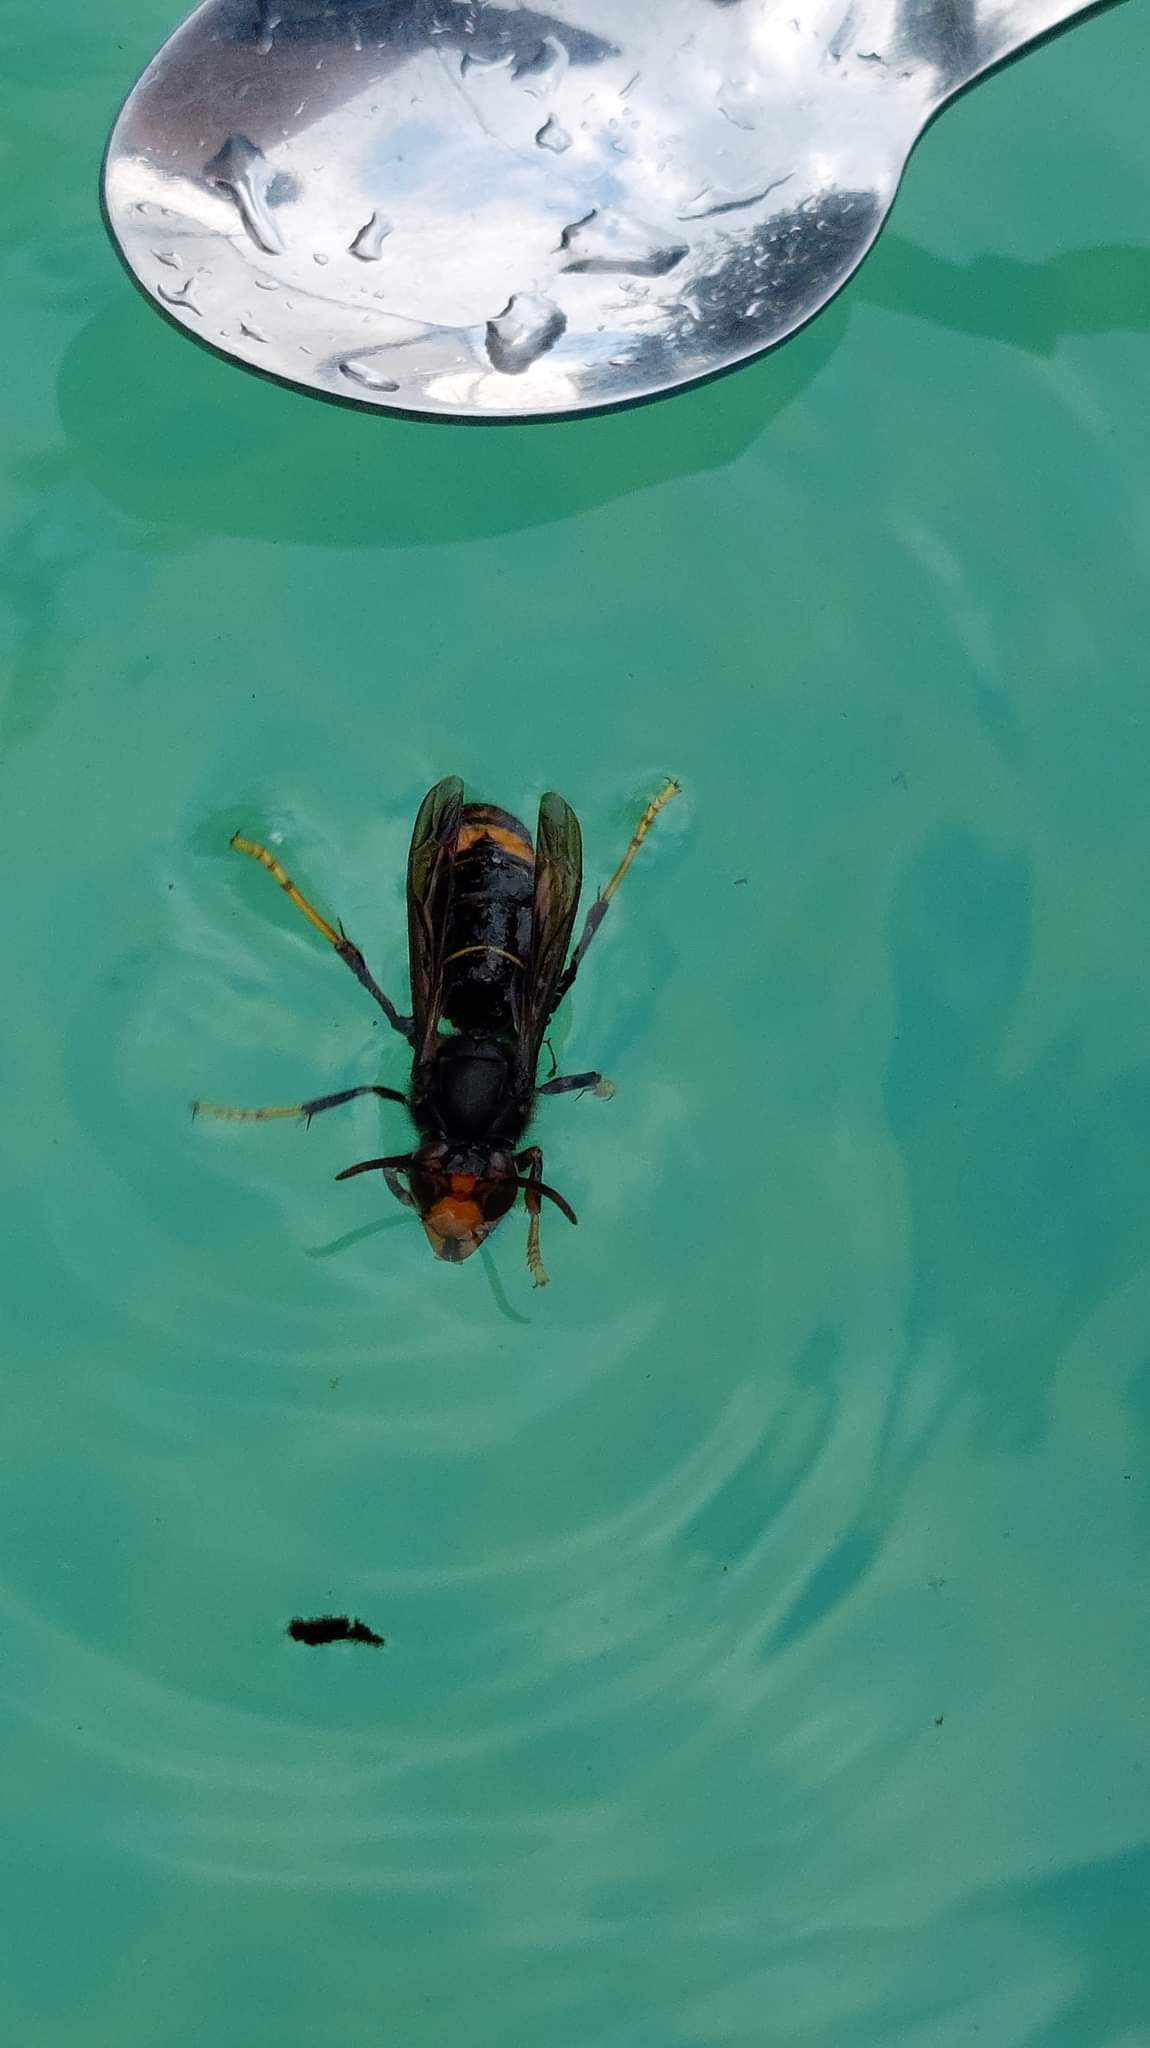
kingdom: Animalia
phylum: Arthropoda
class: Insecta
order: Hymenoptera
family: Vespidae
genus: Vespa
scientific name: Vespa velutina
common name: Asian hornet
